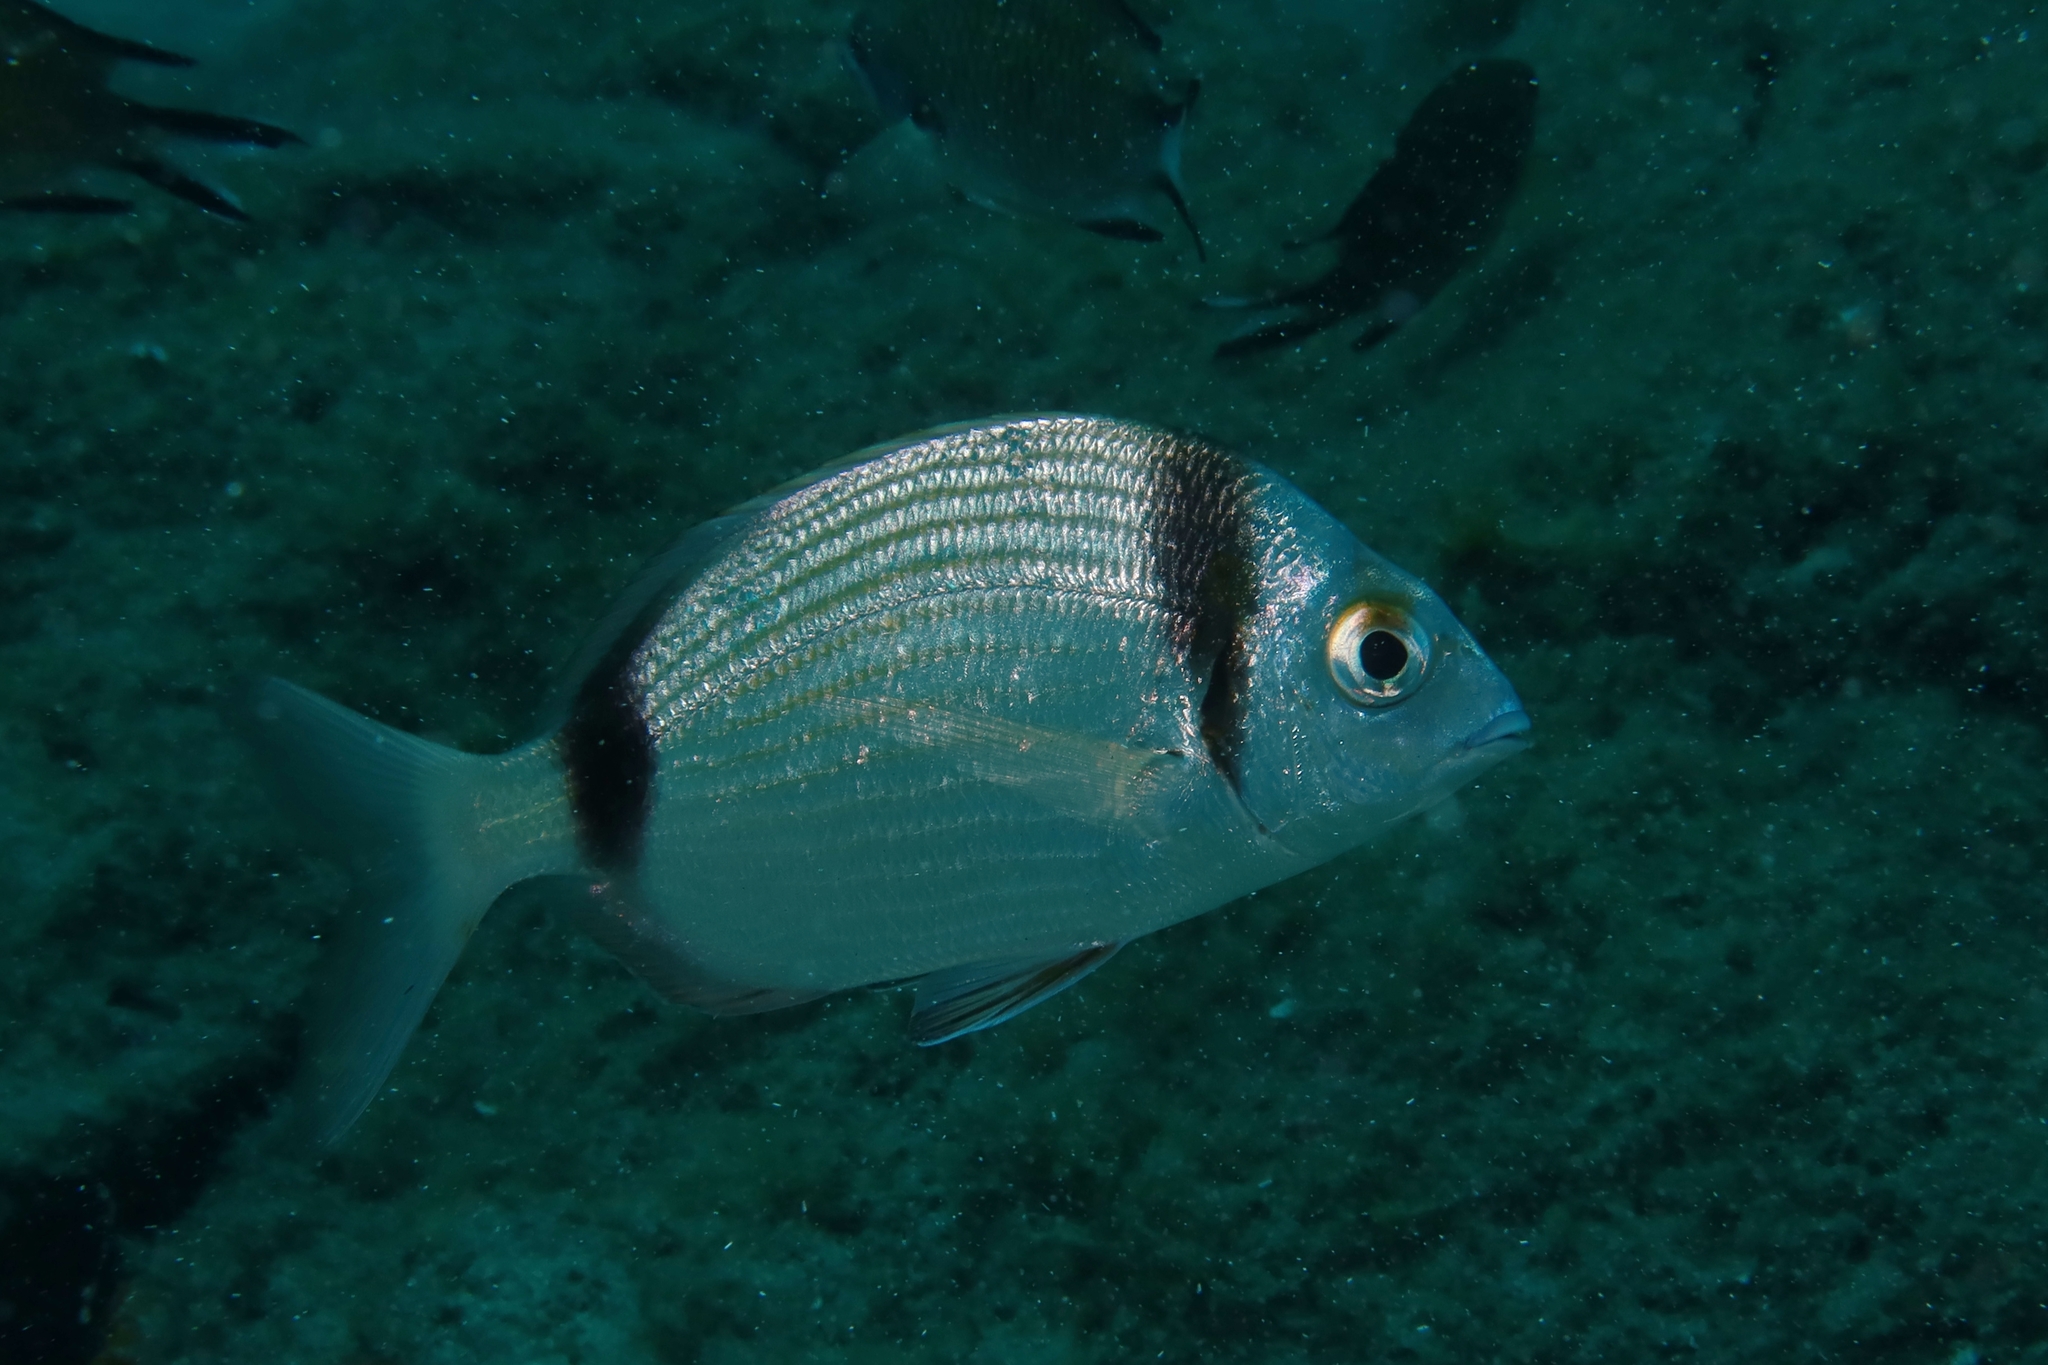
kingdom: Animalia
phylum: Chordata
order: Perciformes
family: Sparidae
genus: Diplodus
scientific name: Diplodus vulgaris
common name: Common two-banded seabream
